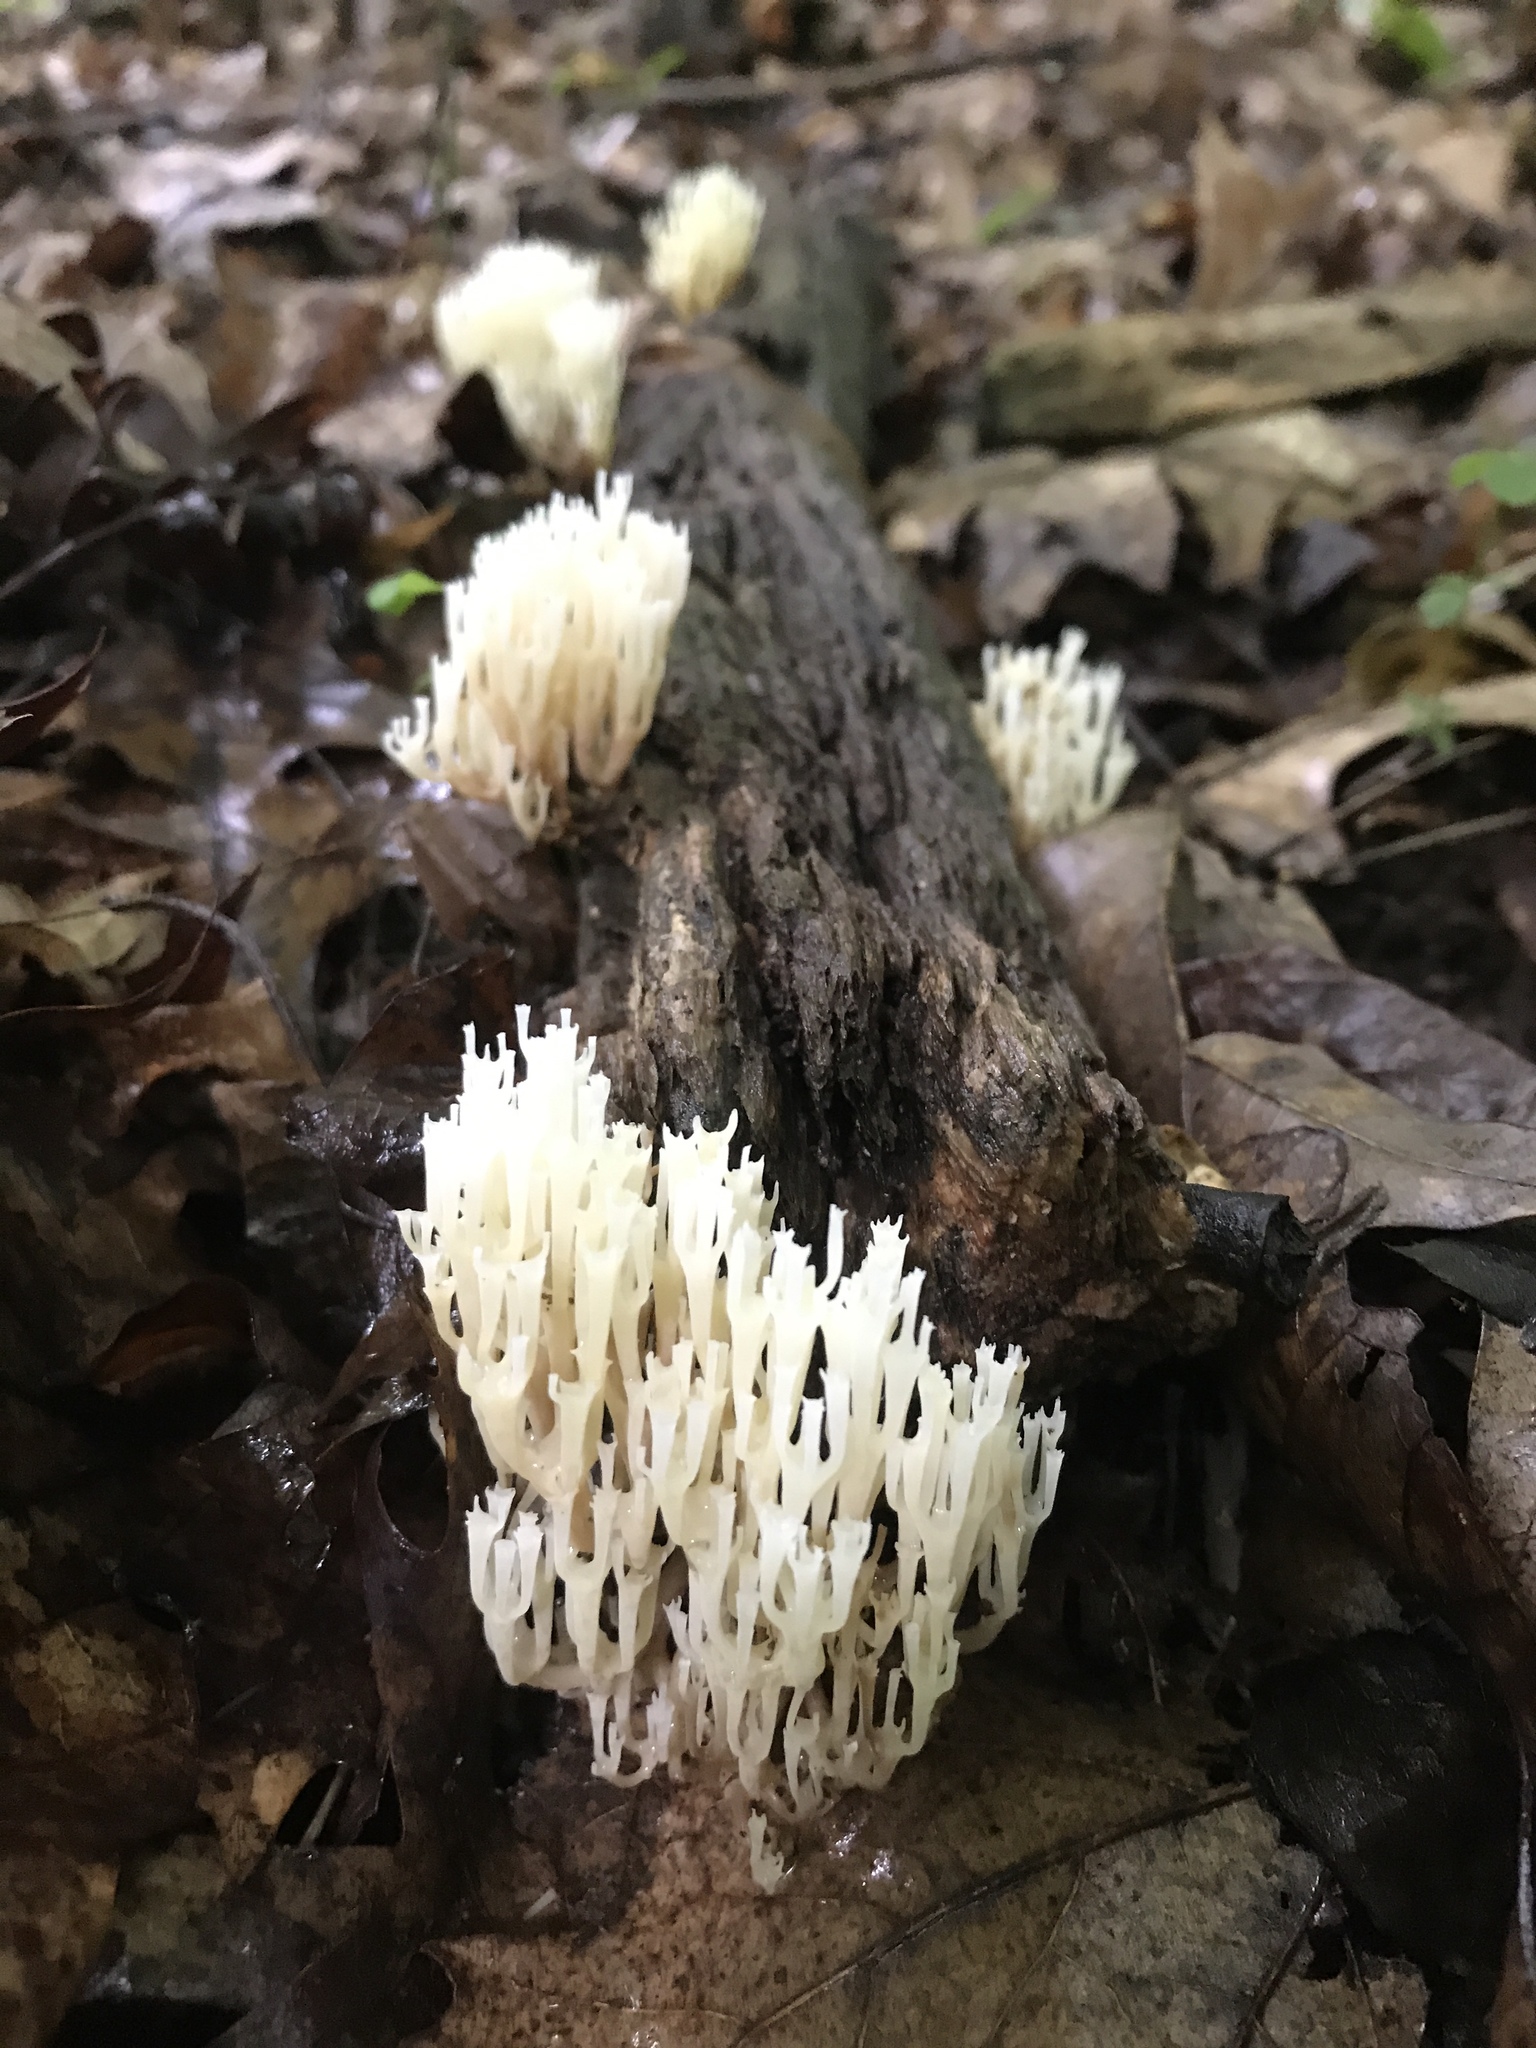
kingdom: Fungi
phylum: Basidiomycota
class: Agaricomycetes
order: Russulales
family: Auriscalpiaceae
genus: Artomyces
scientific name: Artomyces pyxidatus
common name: Crown-tipped coral fungus
